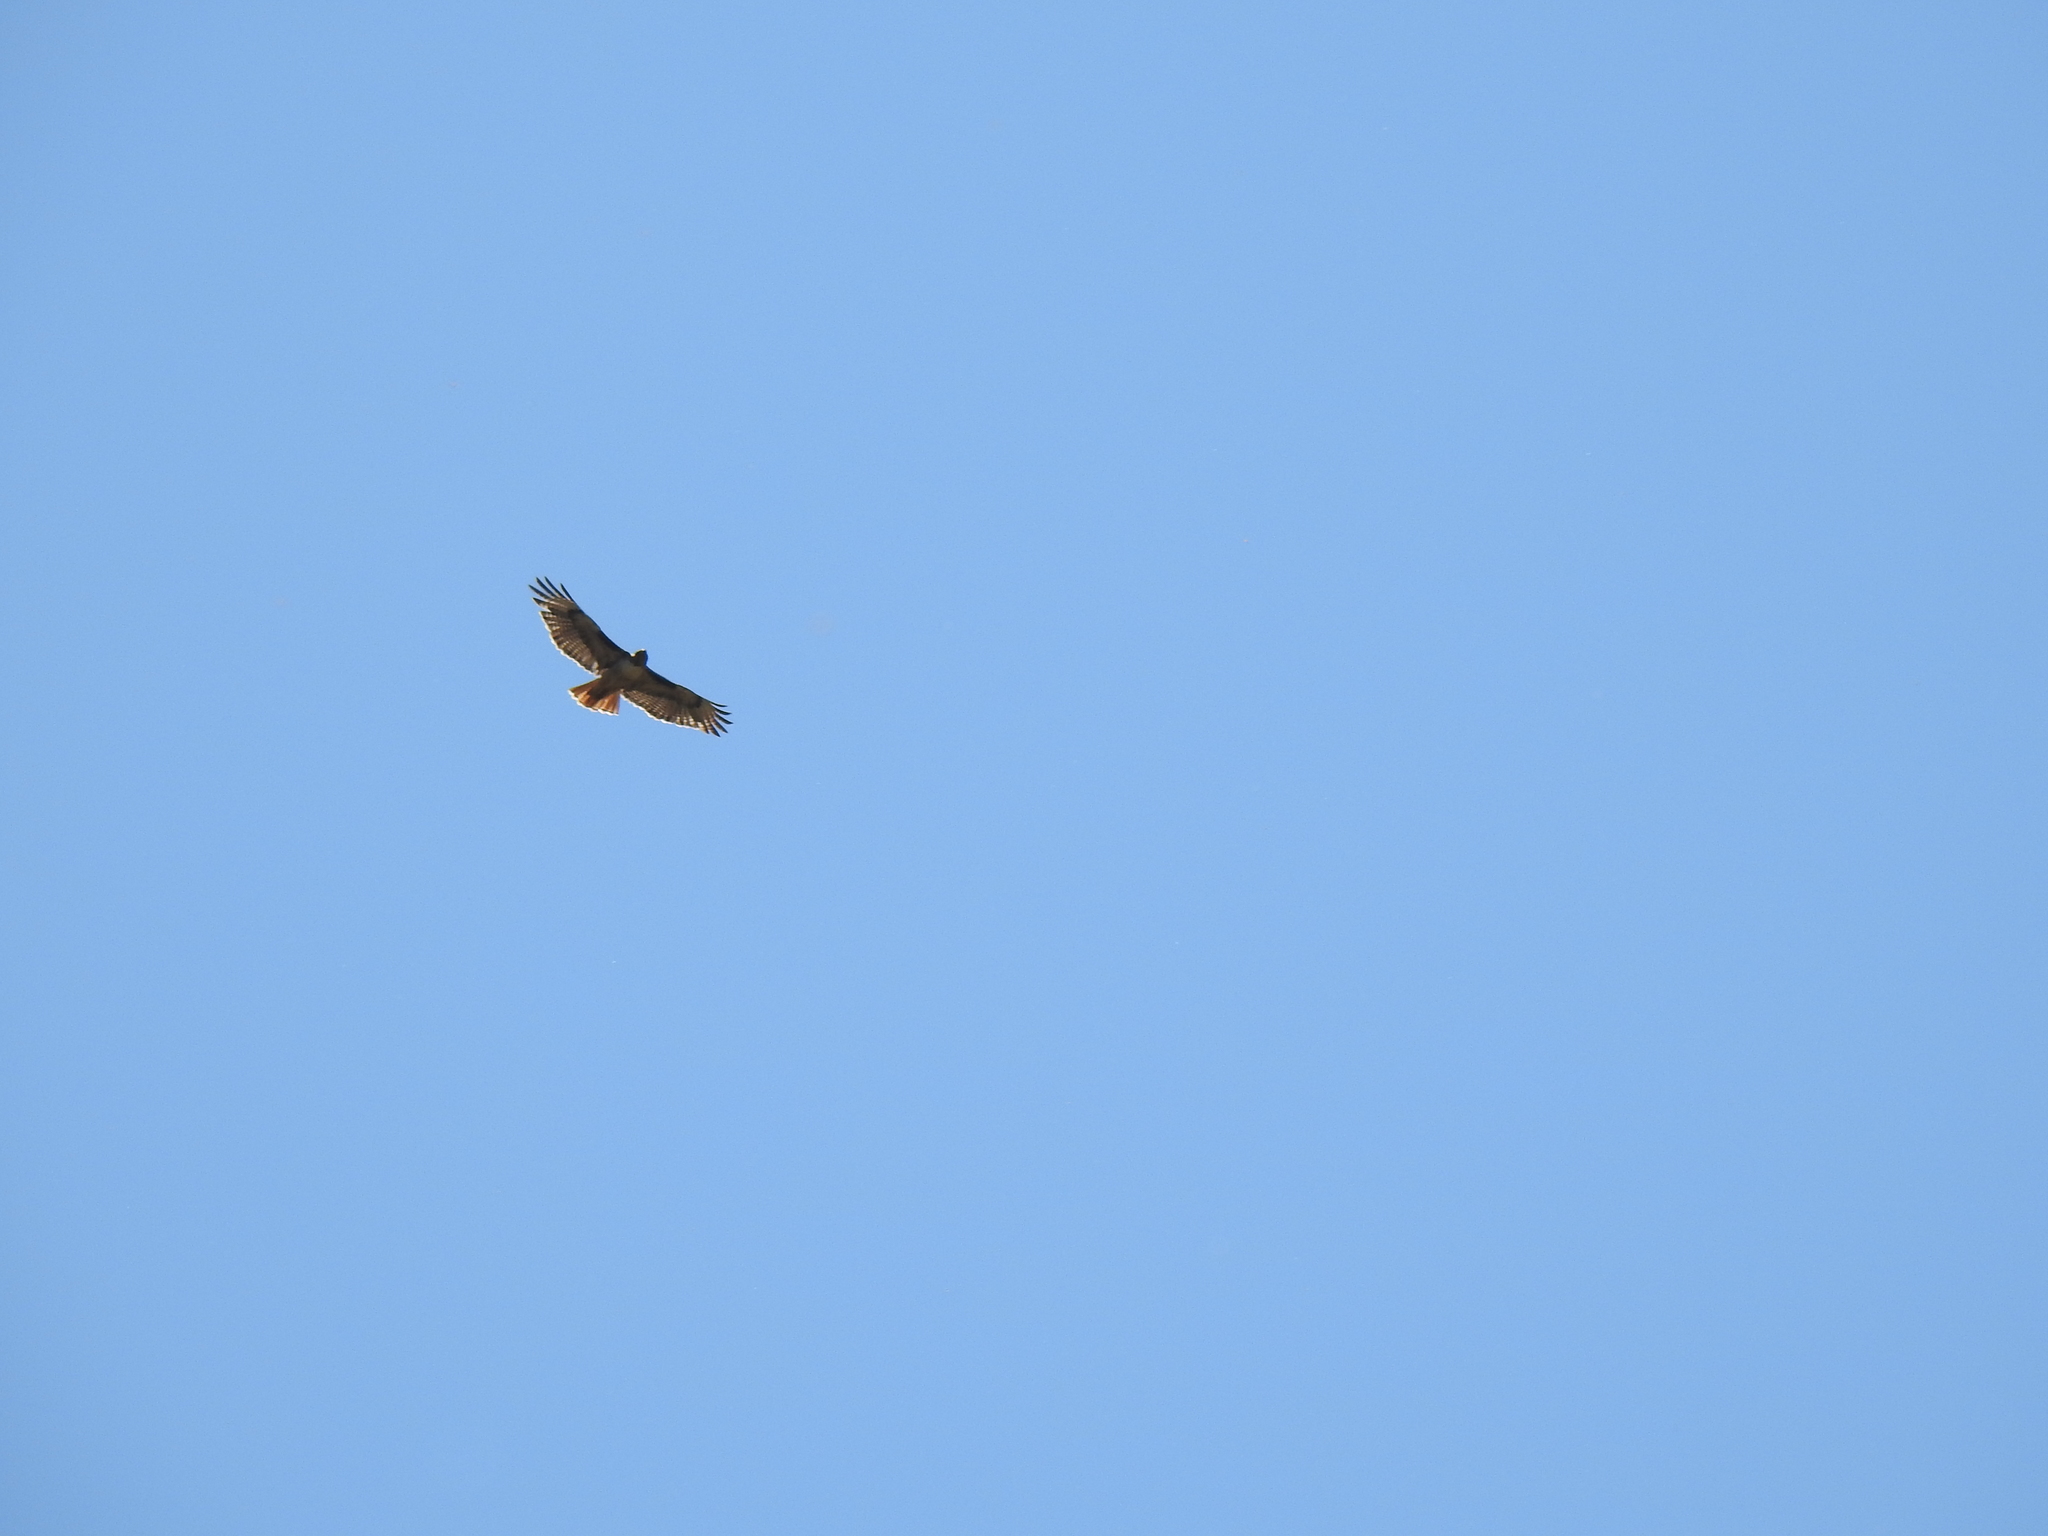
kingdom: Animalia
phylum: Chordata
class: Aves
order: Accipitriformes
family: Accipitridae
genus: Buteo
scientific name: Buteo jamaicensis
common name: Red-tailed hawk
